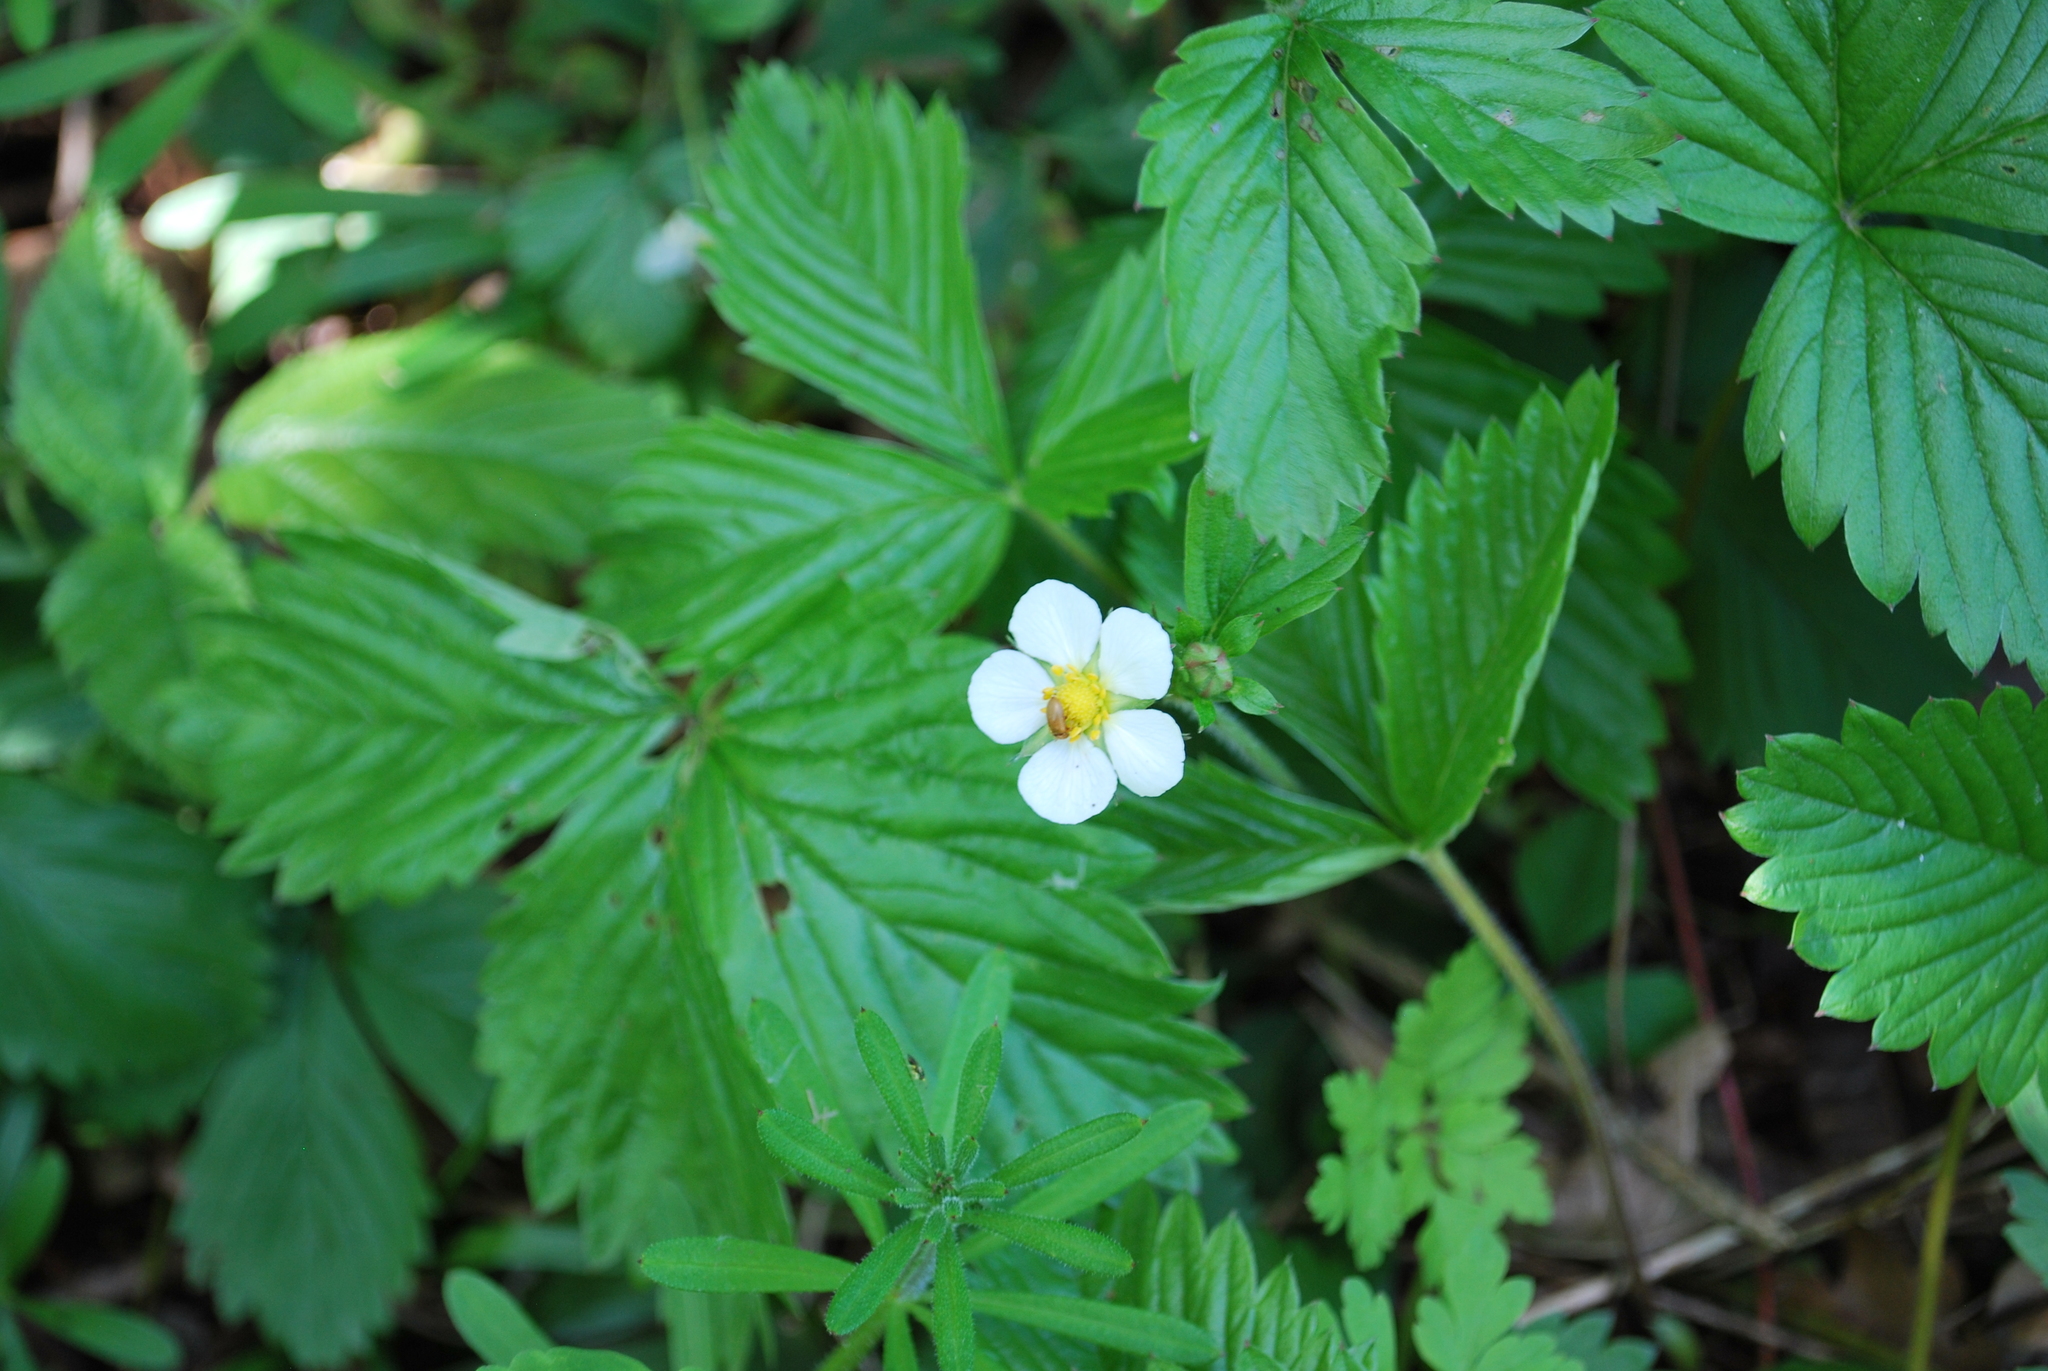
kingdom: Plantae
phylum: Tracheophyta
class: Magnoliopsida
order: Rosales
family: Rosaceae
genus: Fragaria
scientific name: Fragaria vesca
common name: Wild strawberry
